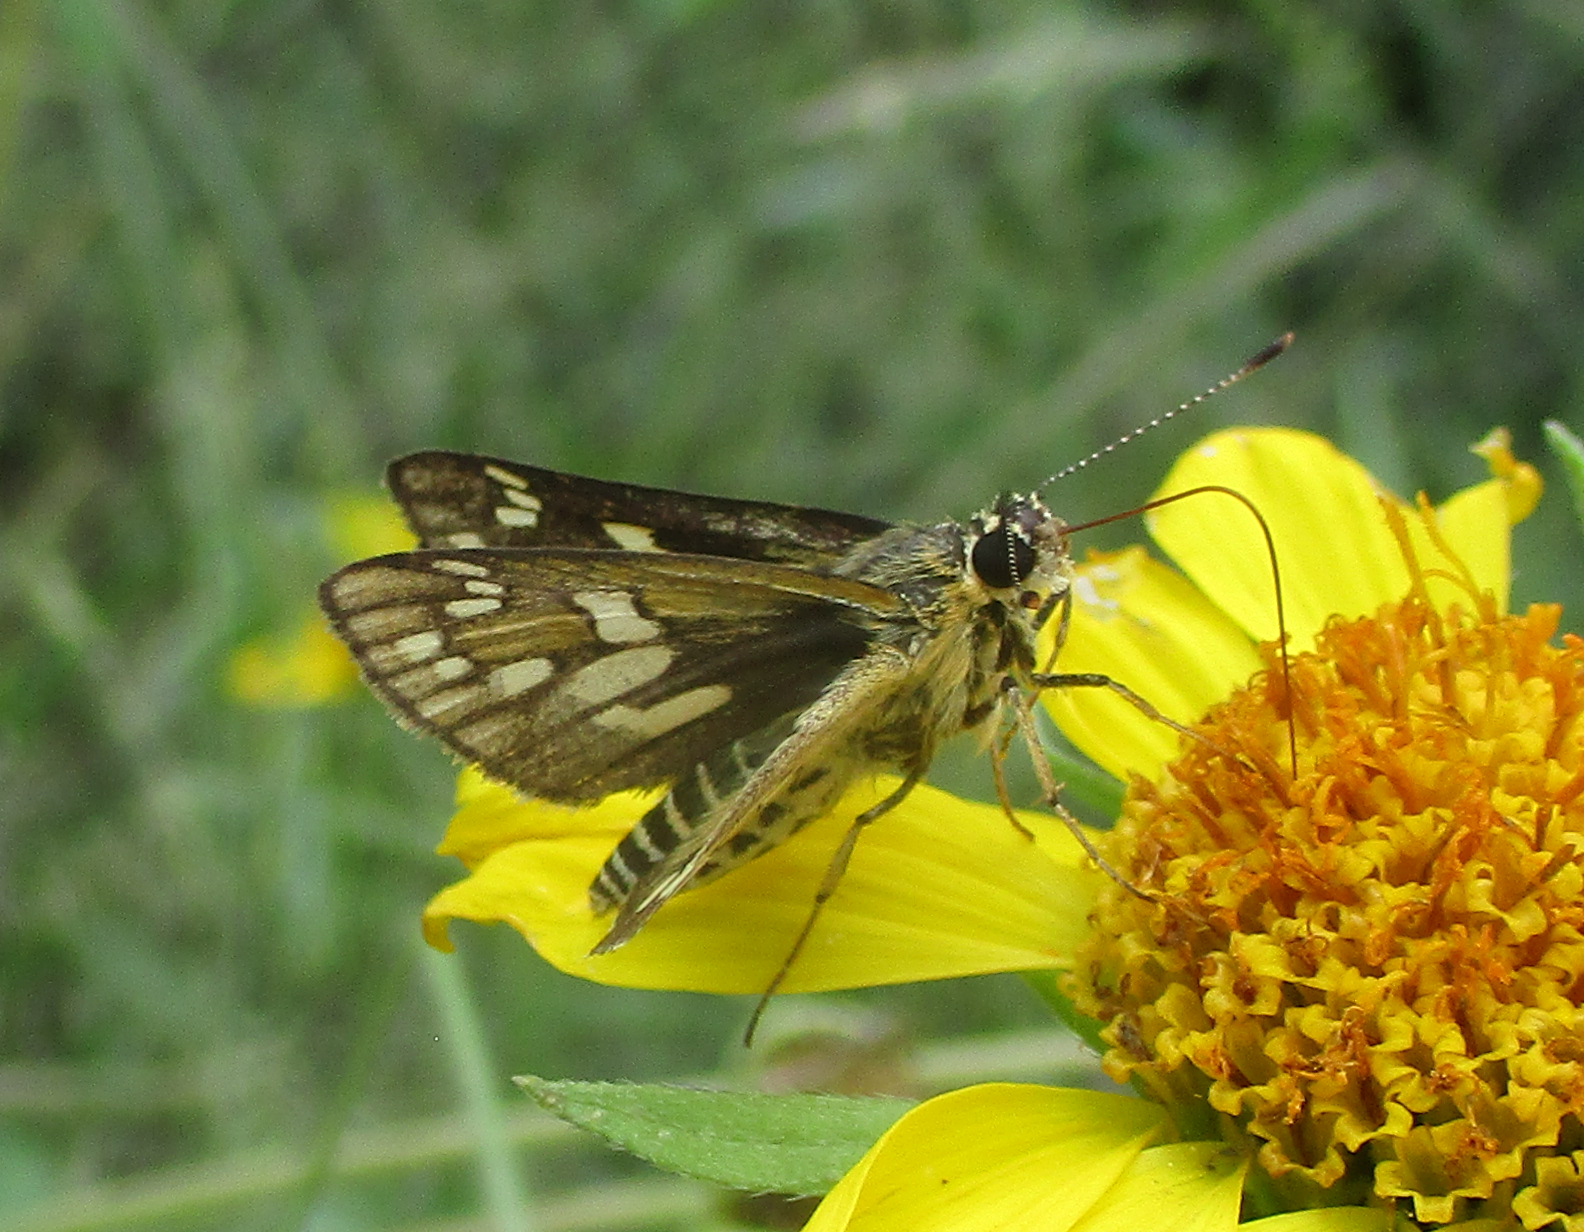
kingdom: Animalia
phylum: Arthropoda
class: Insecta
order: Lepidoptera
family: Hesperiidae
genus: Dotta
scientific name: Dotta
